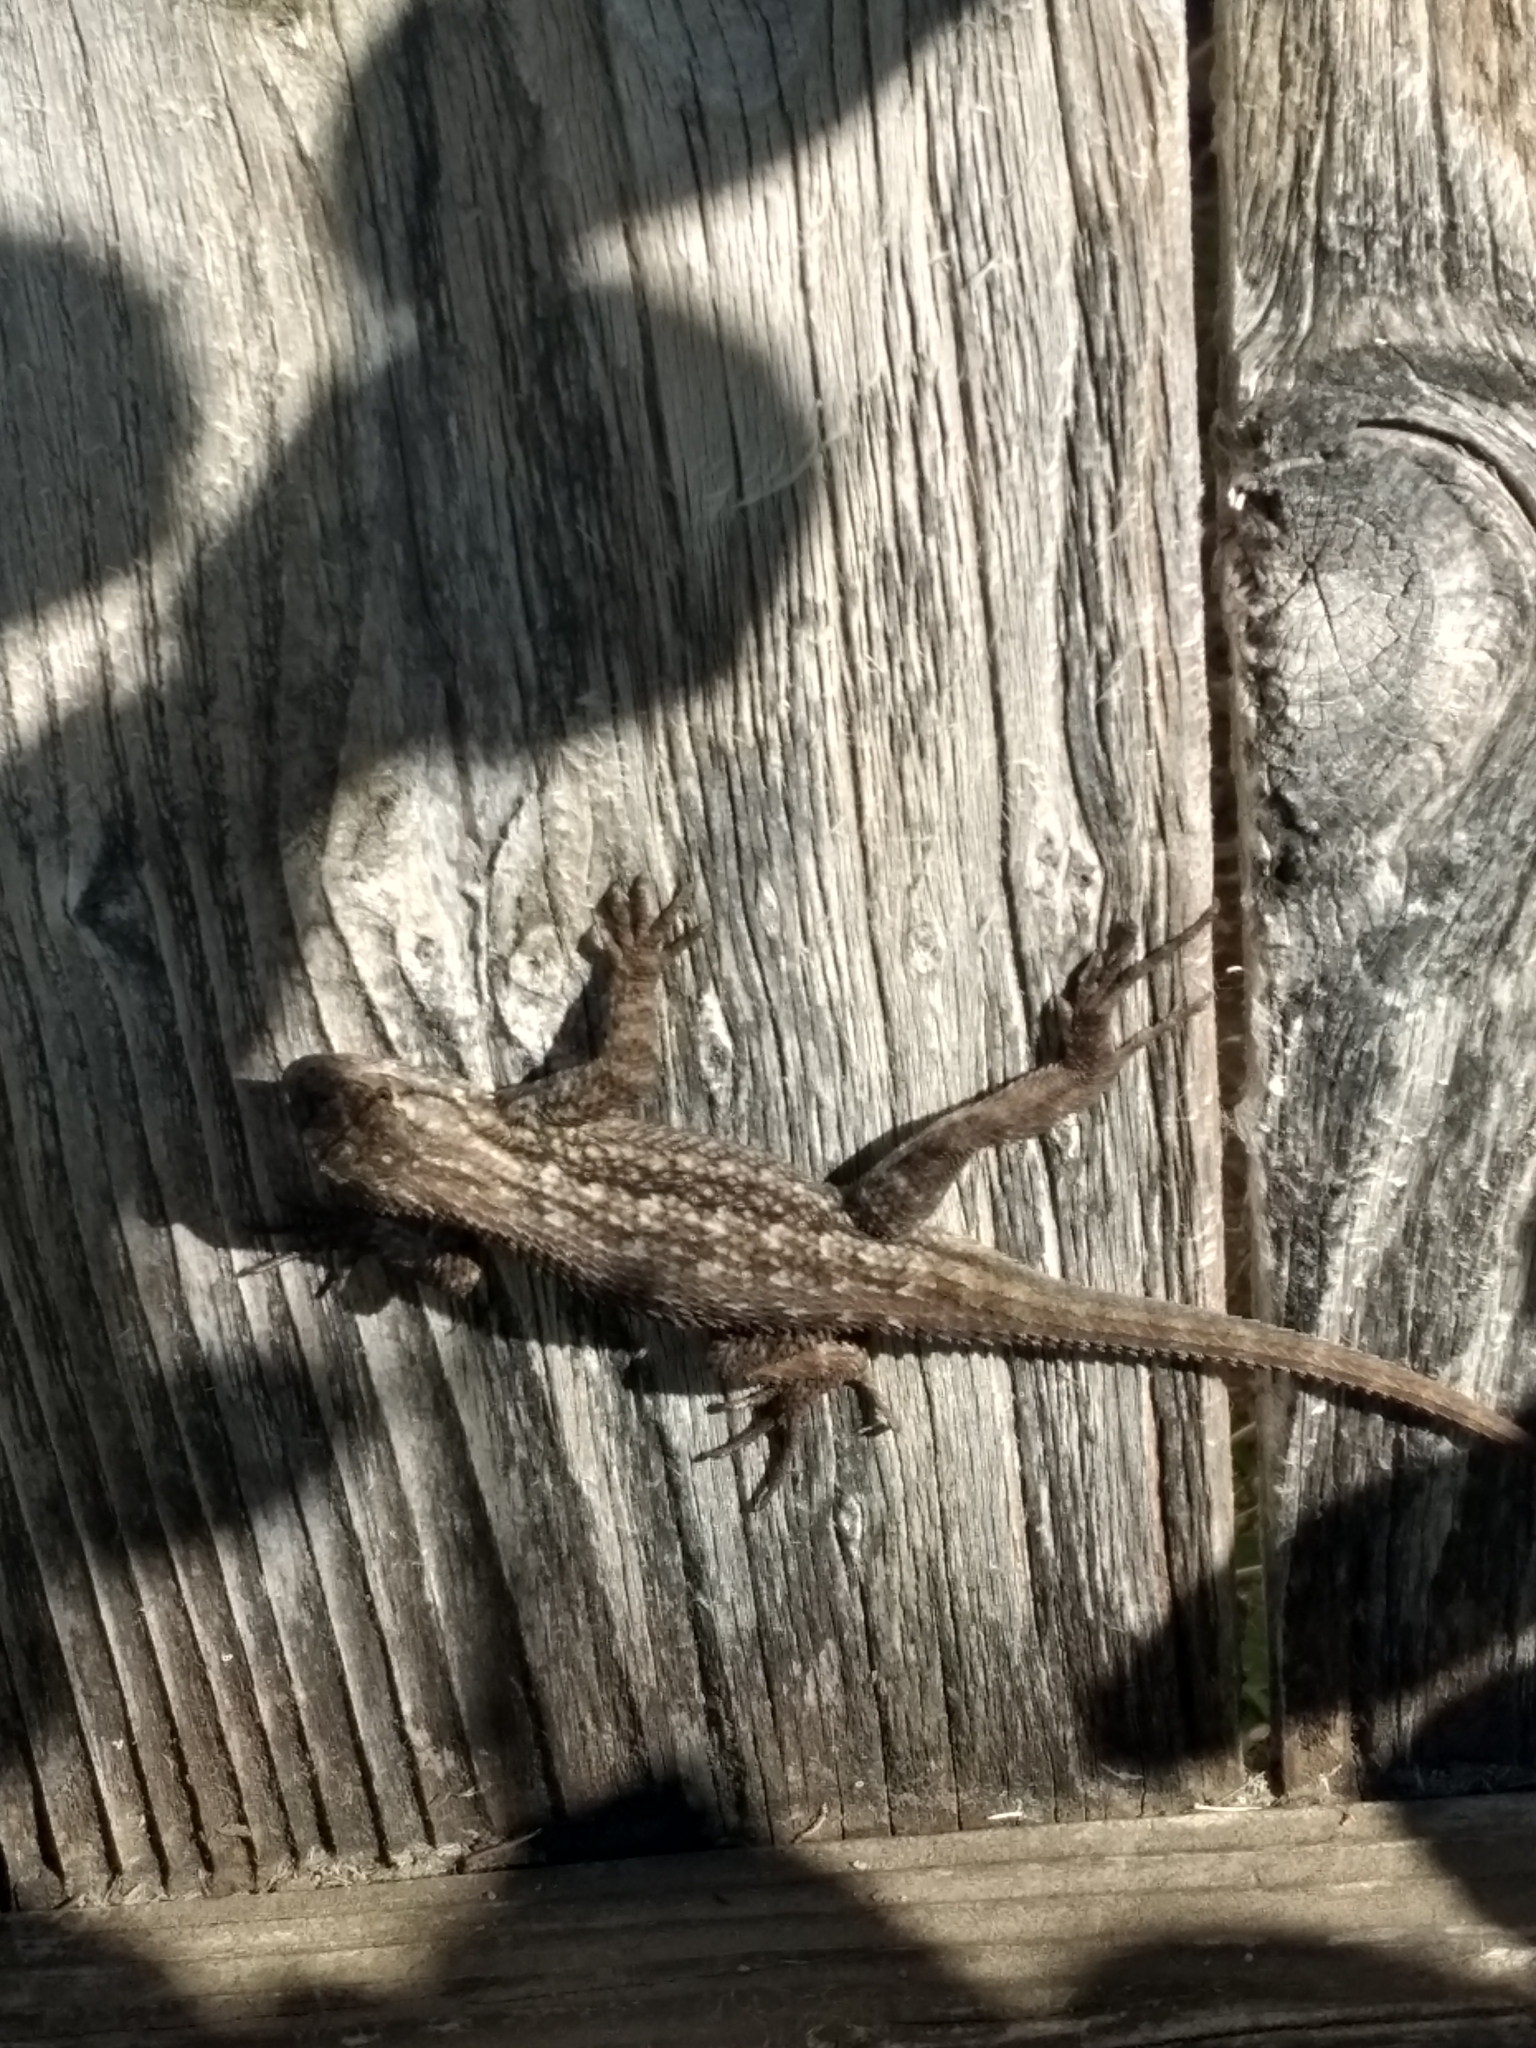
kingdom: Animalia
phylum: Chordata
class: Squamata
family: Phrynosomatidae
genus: Sceloporus
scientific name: Sceloporus occidentalis
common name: Western fence lizard
